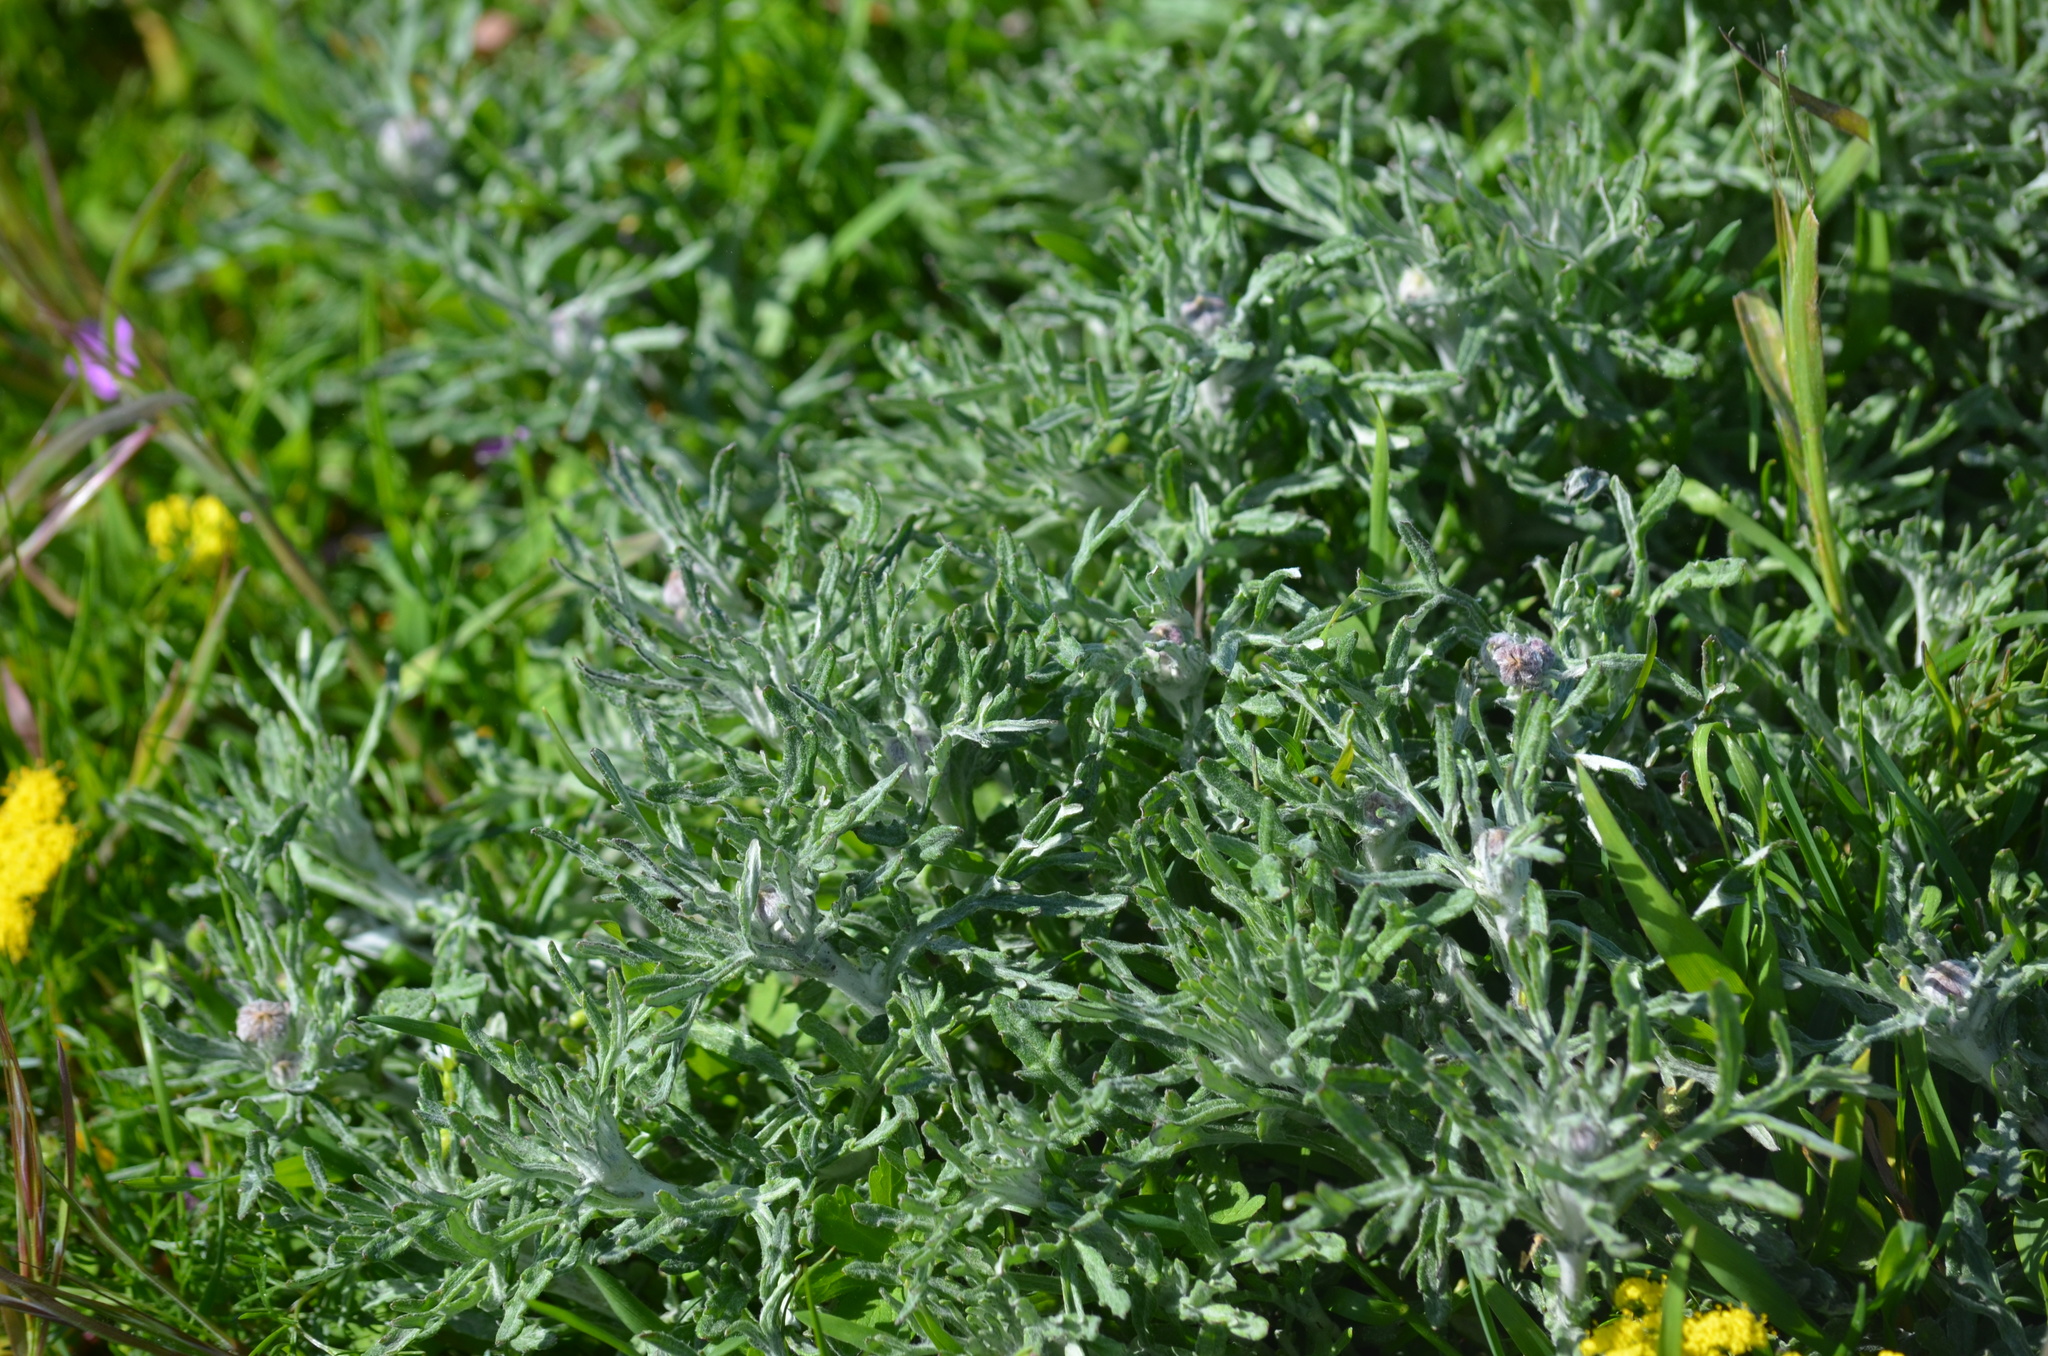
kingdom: Plantae
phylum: Tracheophyta
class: Magnoliopsida
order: Asterales
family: Asteraceae
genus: Eriophyllum
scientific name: Eriophyllum lanatum
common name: Common woolly-sunflower
